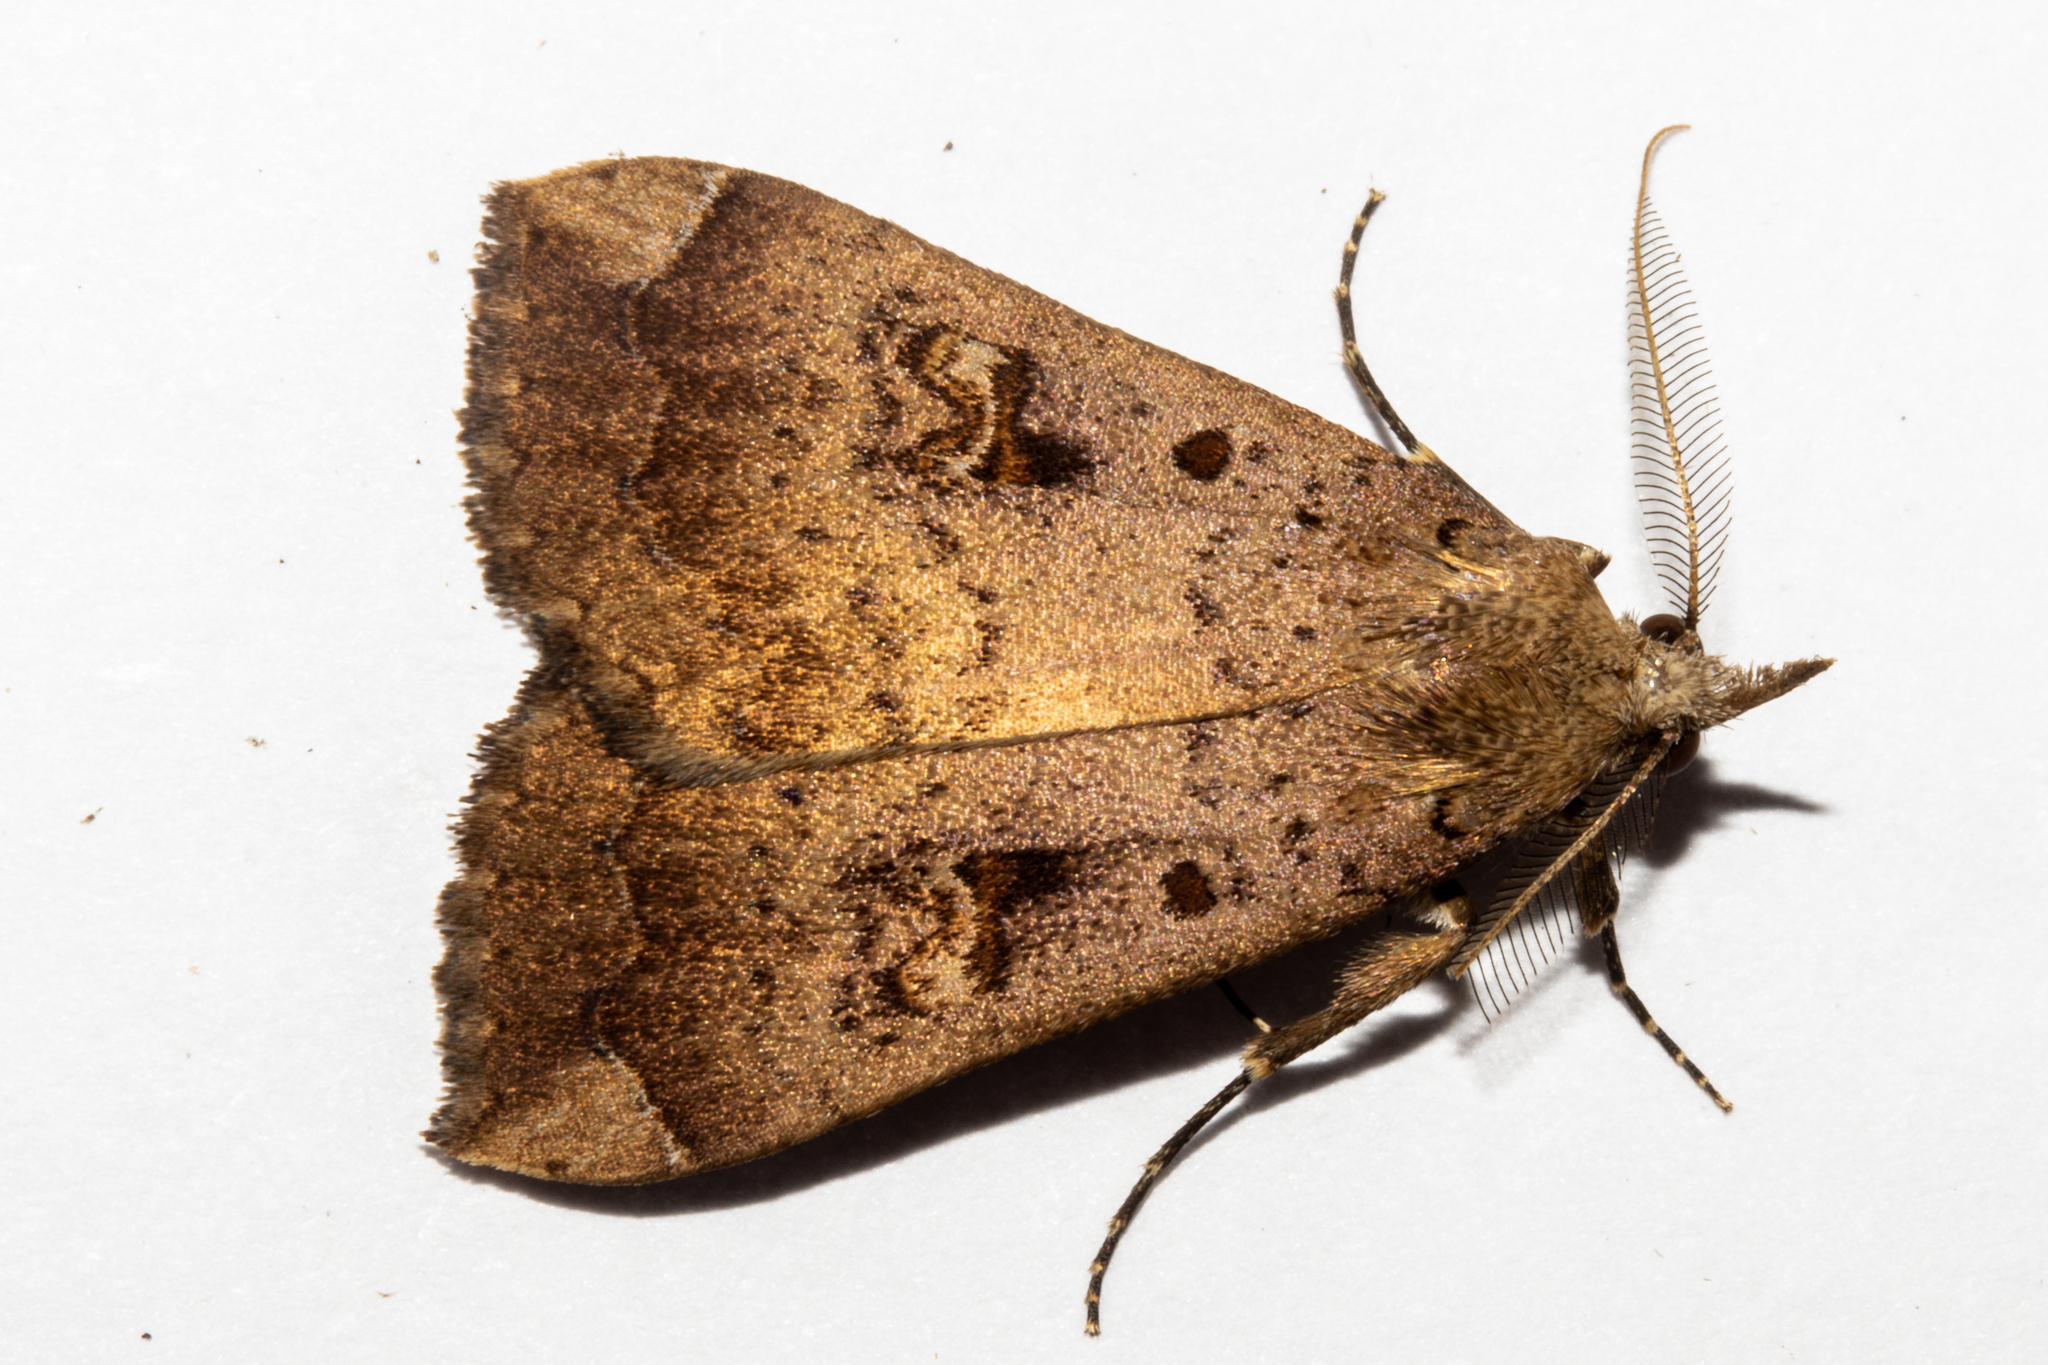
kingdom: Animalia
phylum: Arthropoda
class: Insecta
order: Lepidoptera
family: Erebidae
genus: Rhapsa
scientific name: Rhapsa scotosialis
